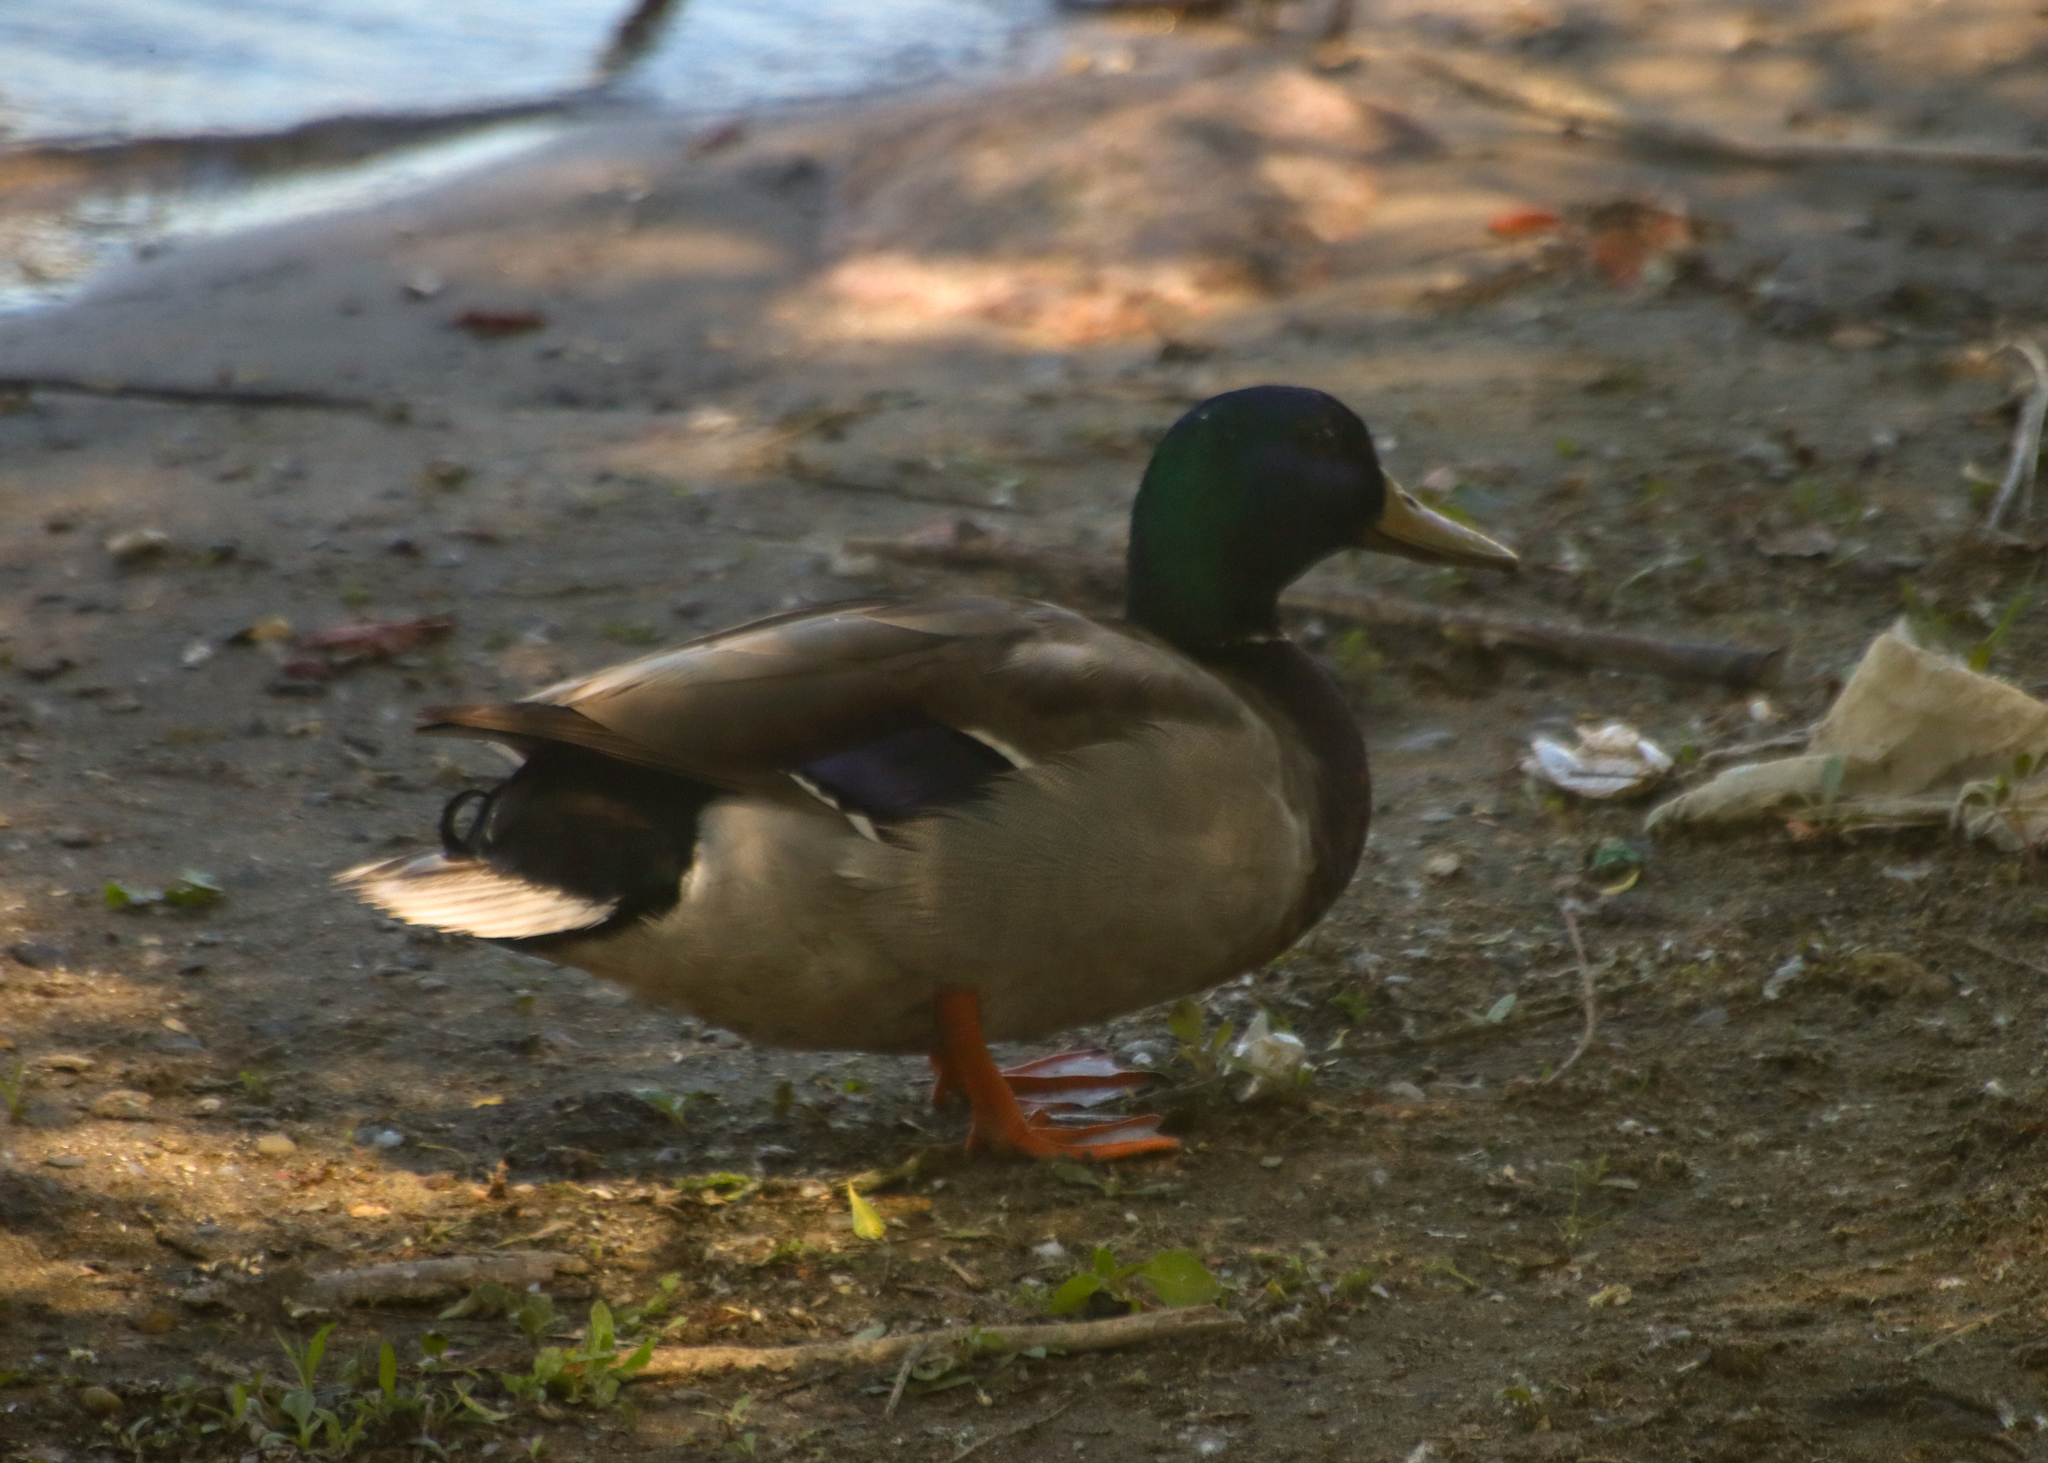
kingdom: Animalia
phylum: Chordata
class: Aves
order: Anseriformes
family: Anatidae
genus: Anas
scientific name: Anas platyrhynchos
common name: Mallard
